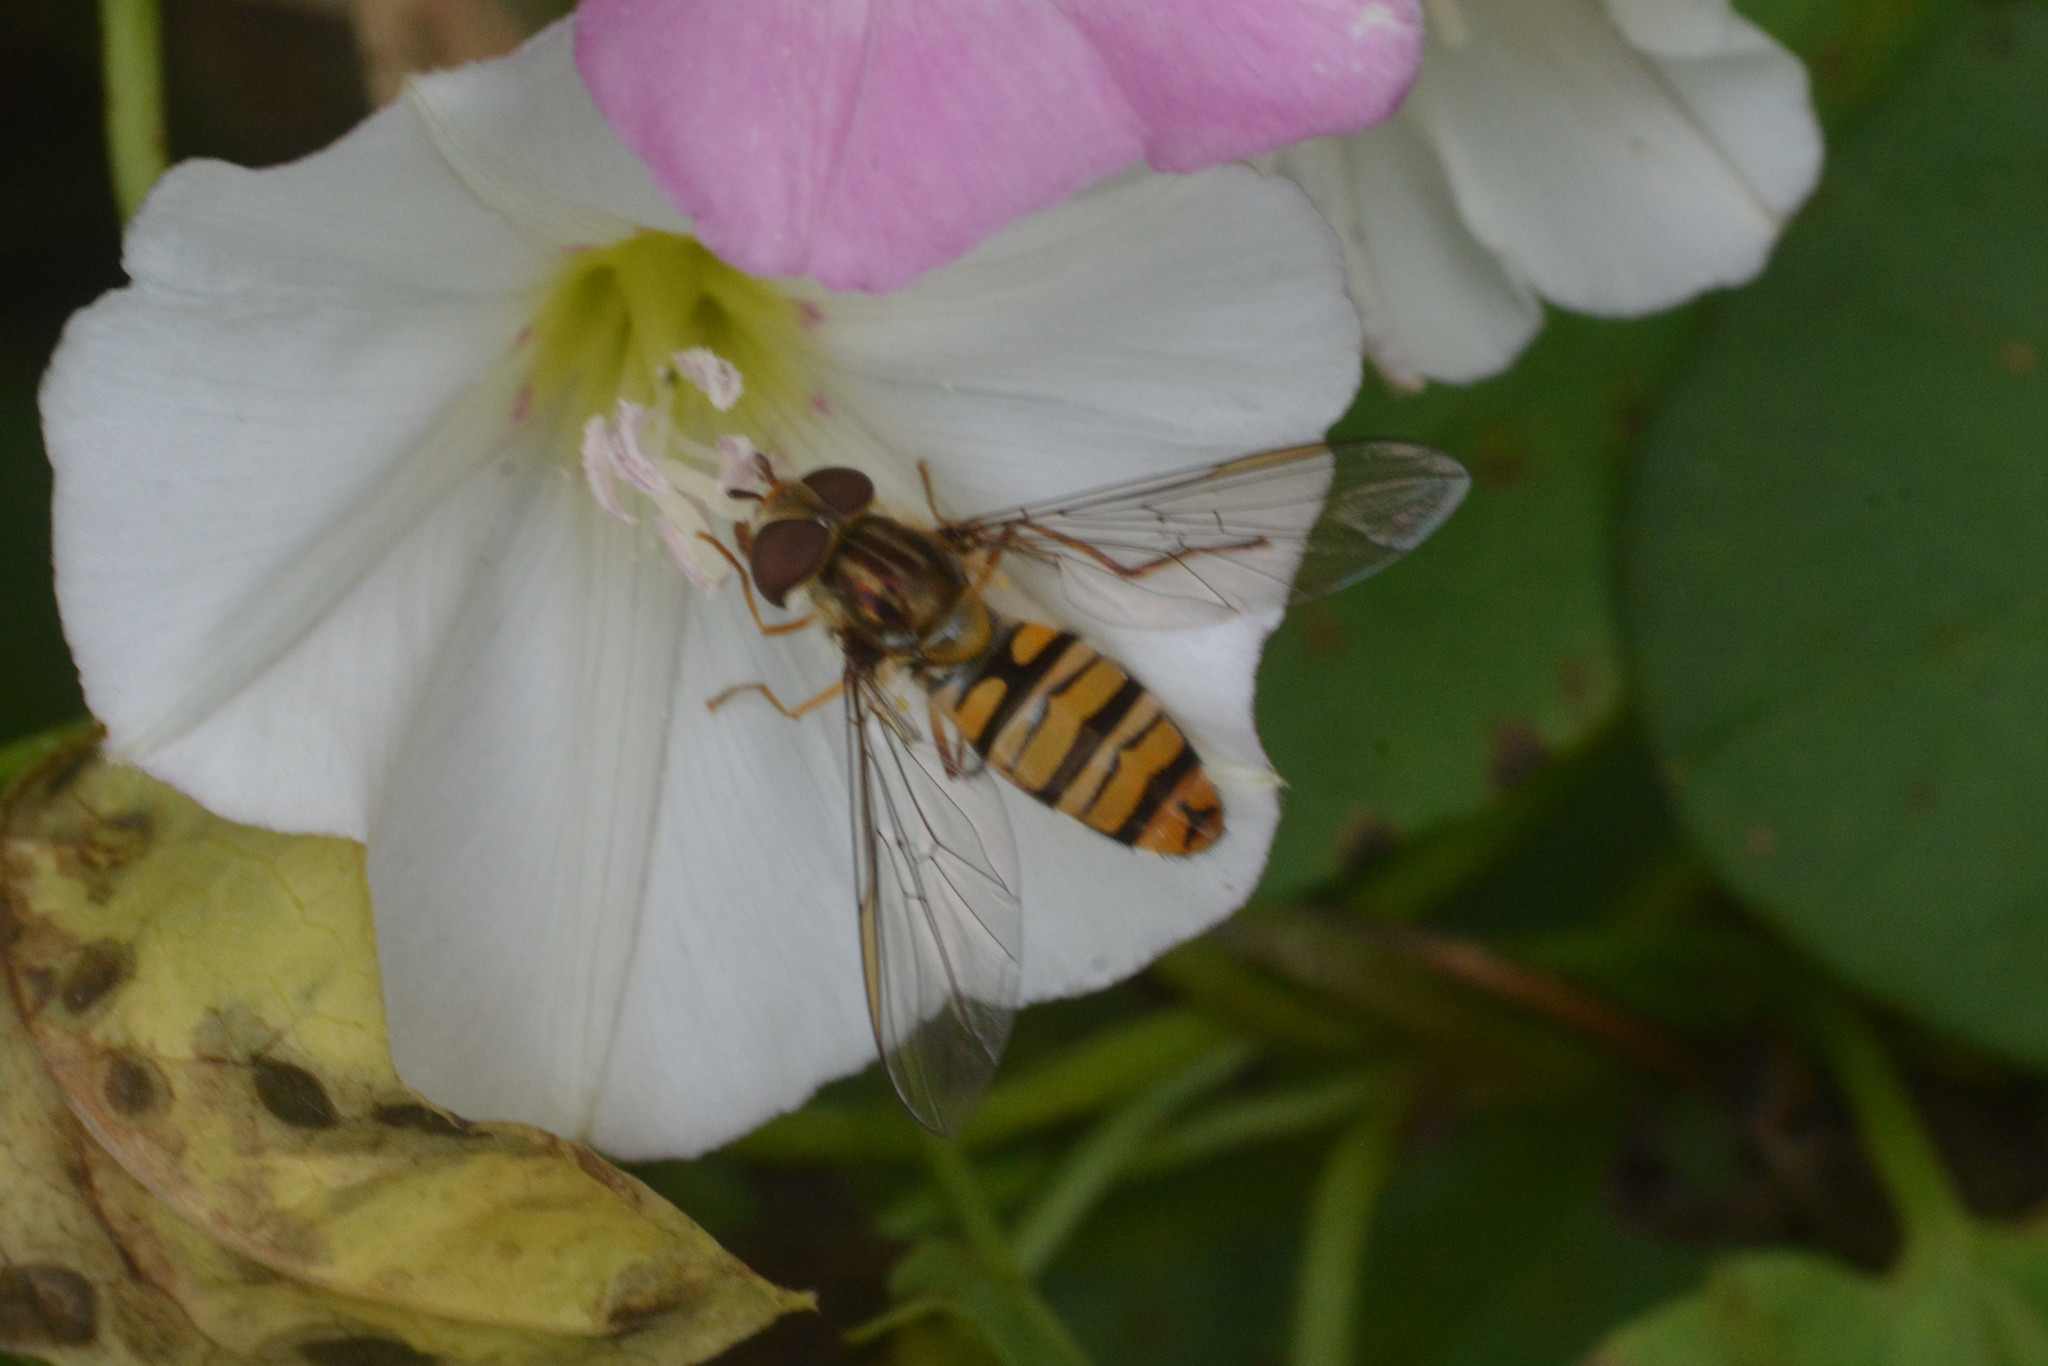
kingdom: Animalia
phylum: Arthropoda
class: Insecta
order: Diptera
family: Syrphidae
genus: Episyrphus
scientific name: Episyrphus balteatus
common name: Marmalade hoverfly
